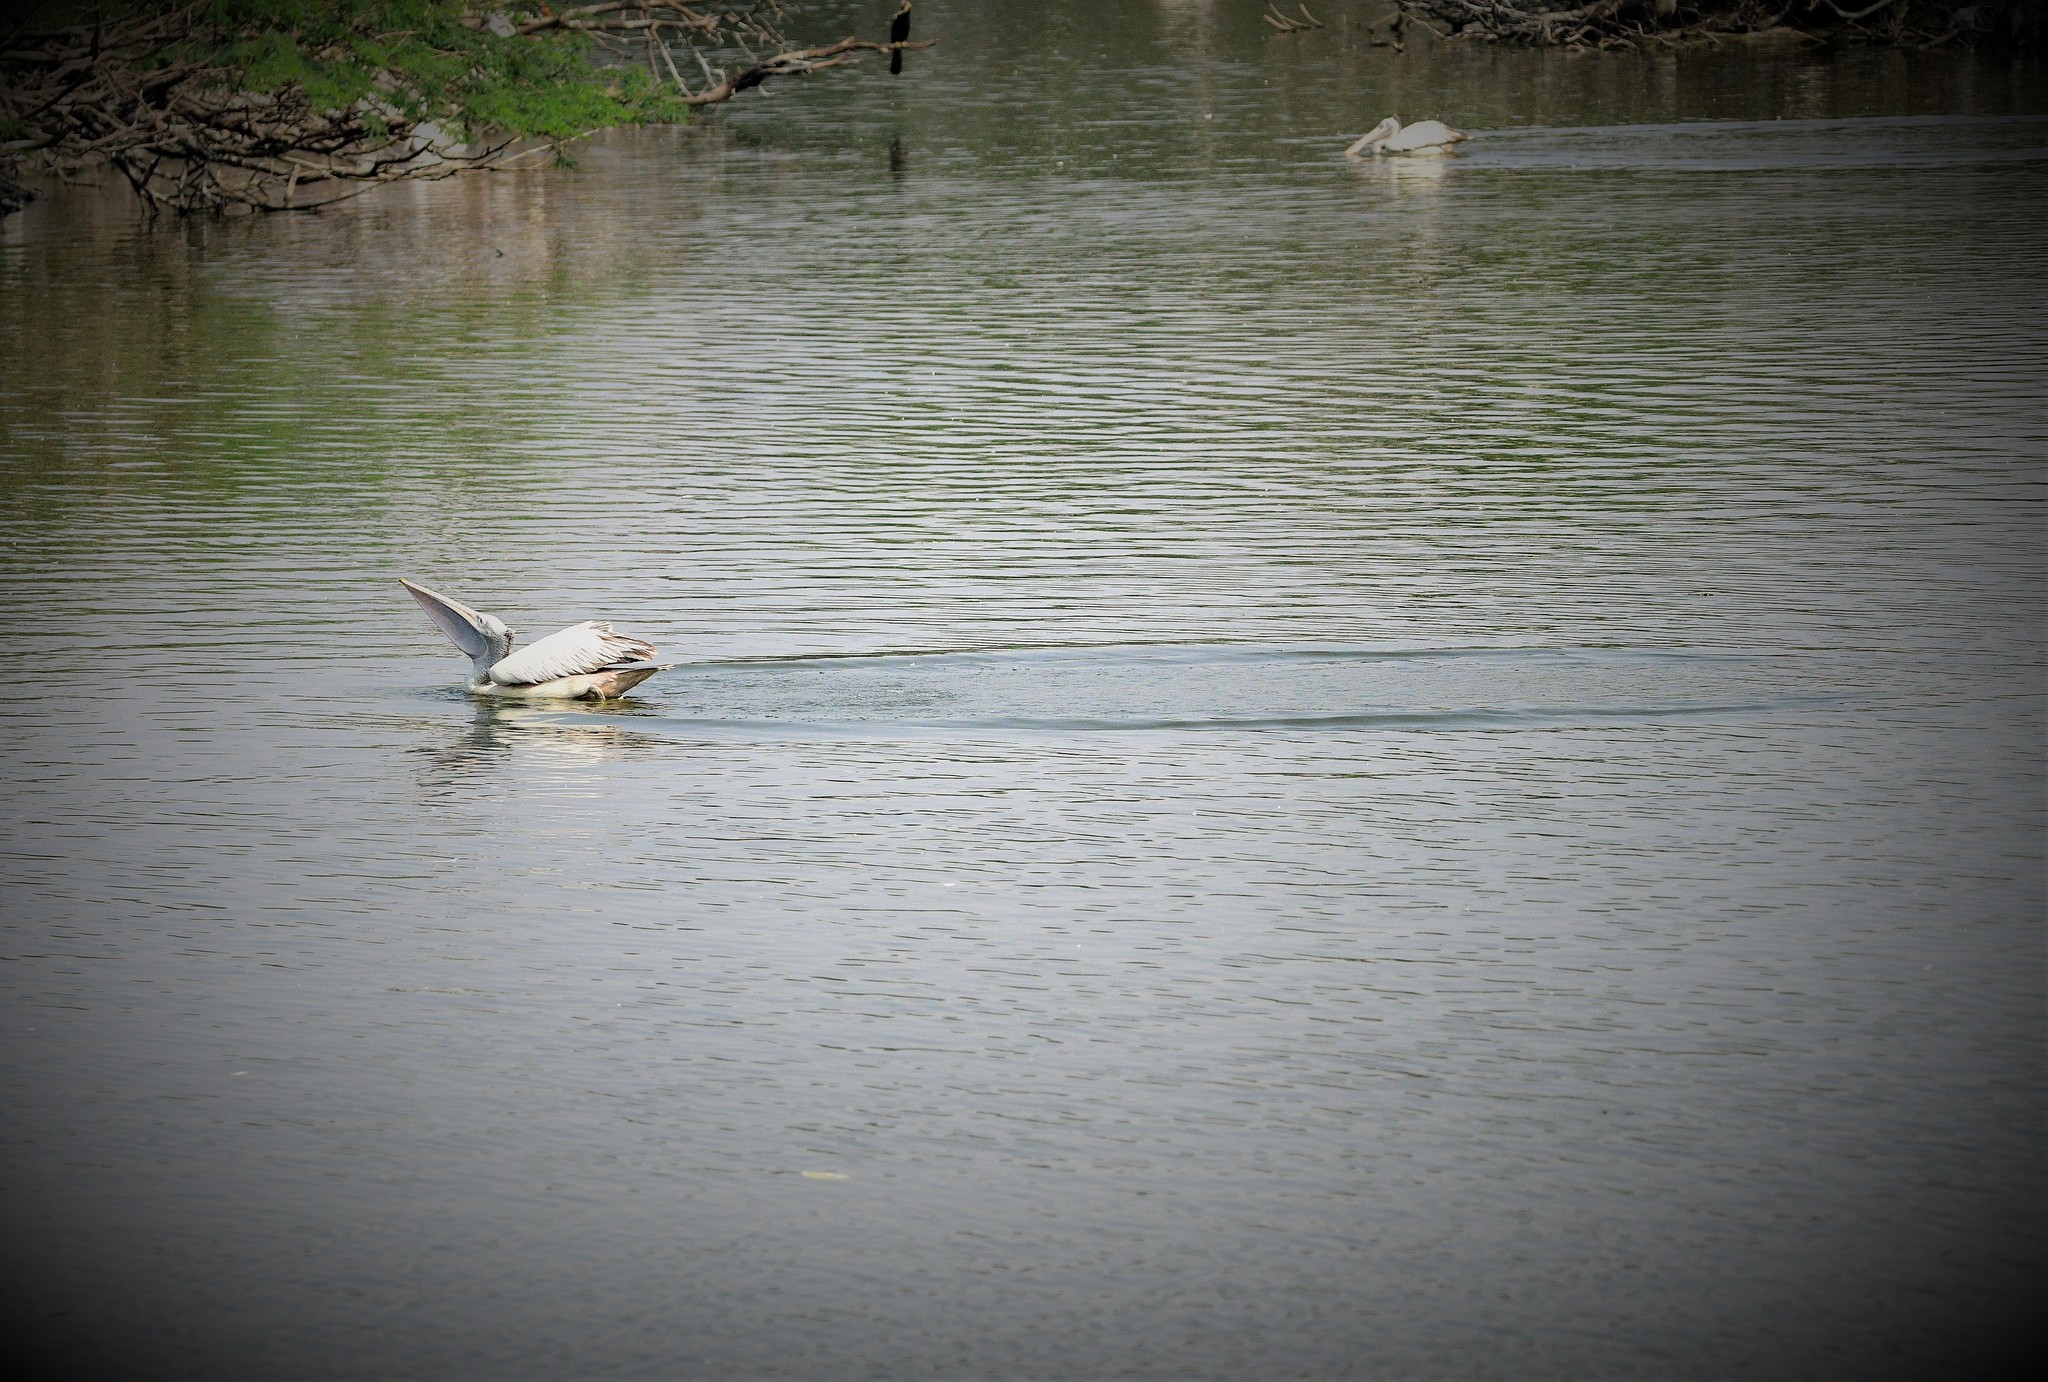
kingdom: Animalia
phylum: Chordata
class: Aves
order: Pelecaniformes
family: Pelecanidae
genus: Pelecanus
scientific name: Pelecanus philippensis
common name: Spot-billed pelican
